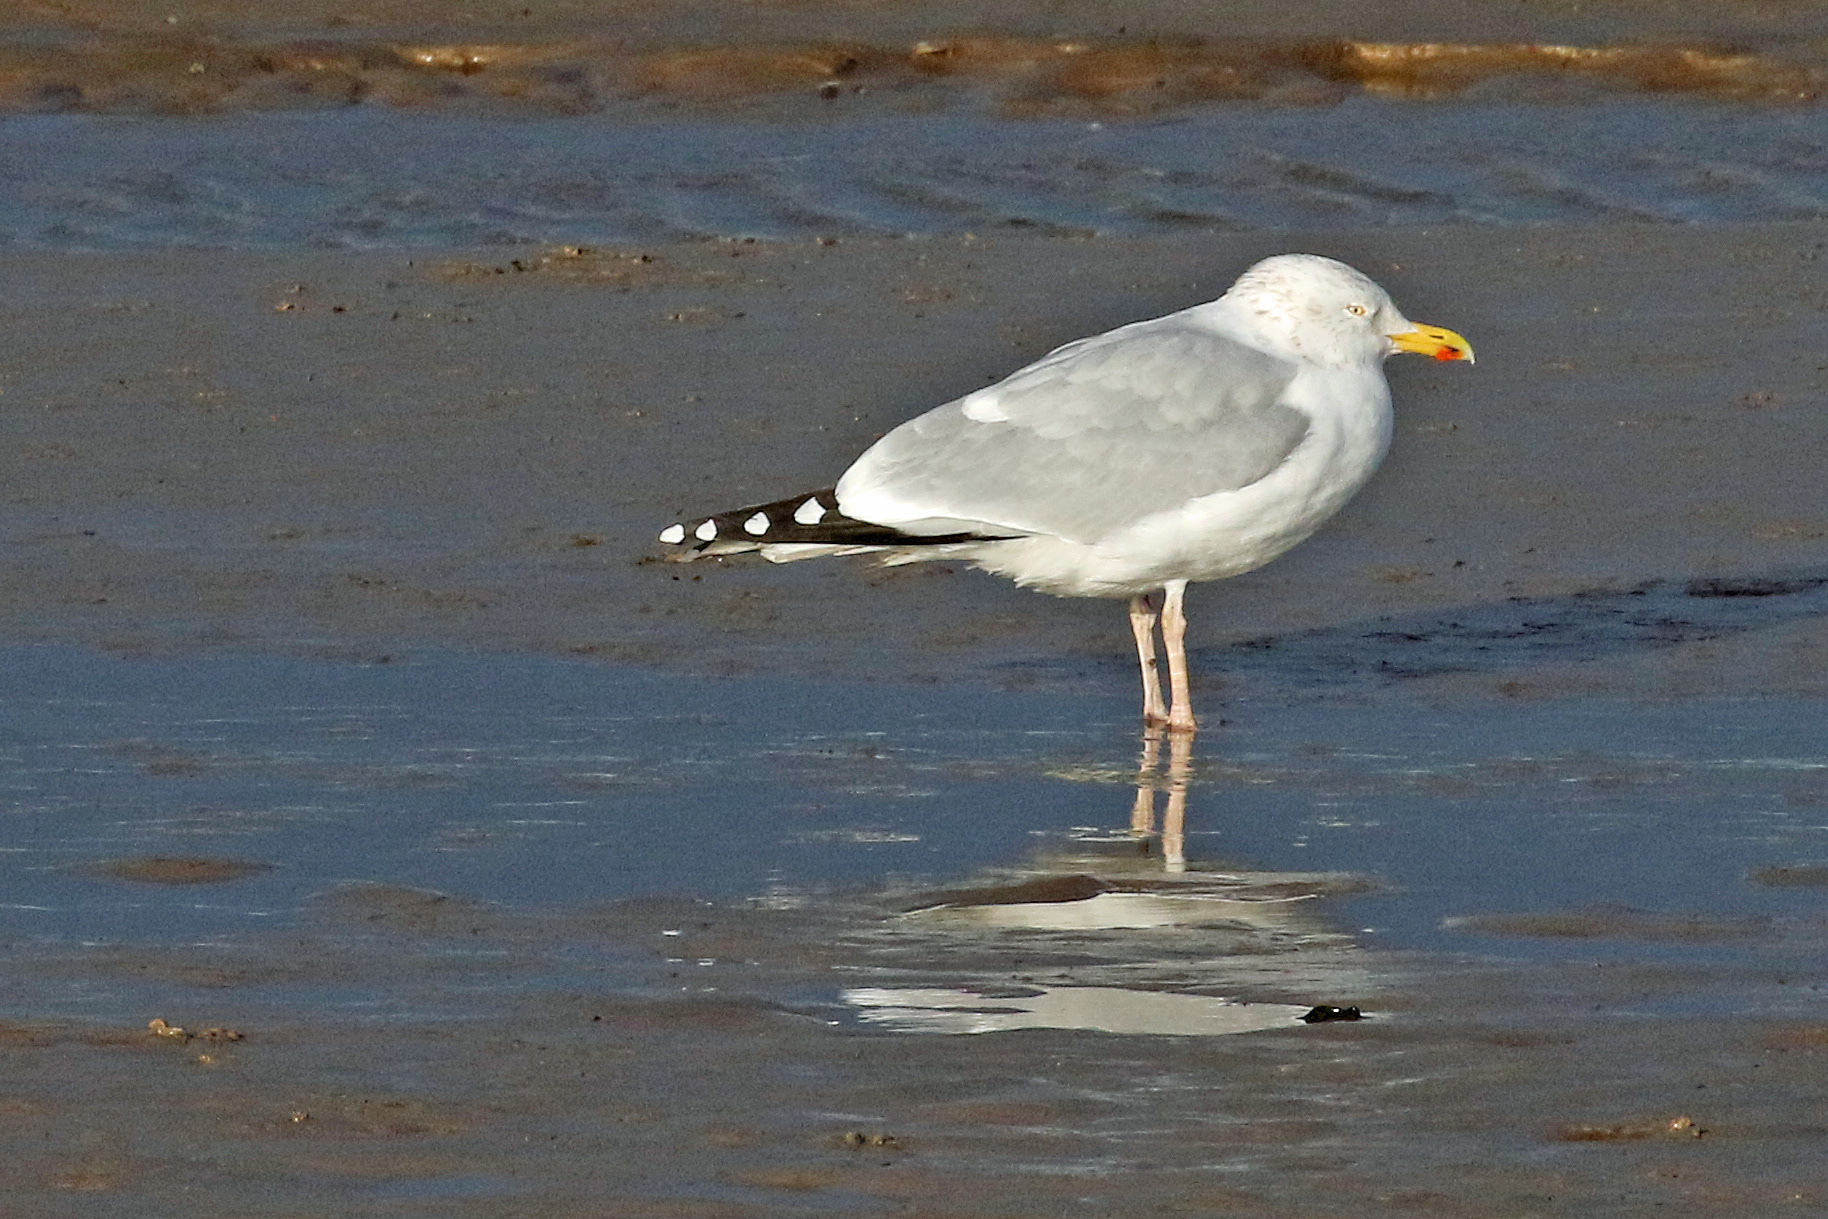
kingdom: Animalia
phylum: Chordata
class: Aves
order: Charadriiformes
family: Laridae
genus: Larus
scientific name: Larus argentatus
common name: Herring gull
